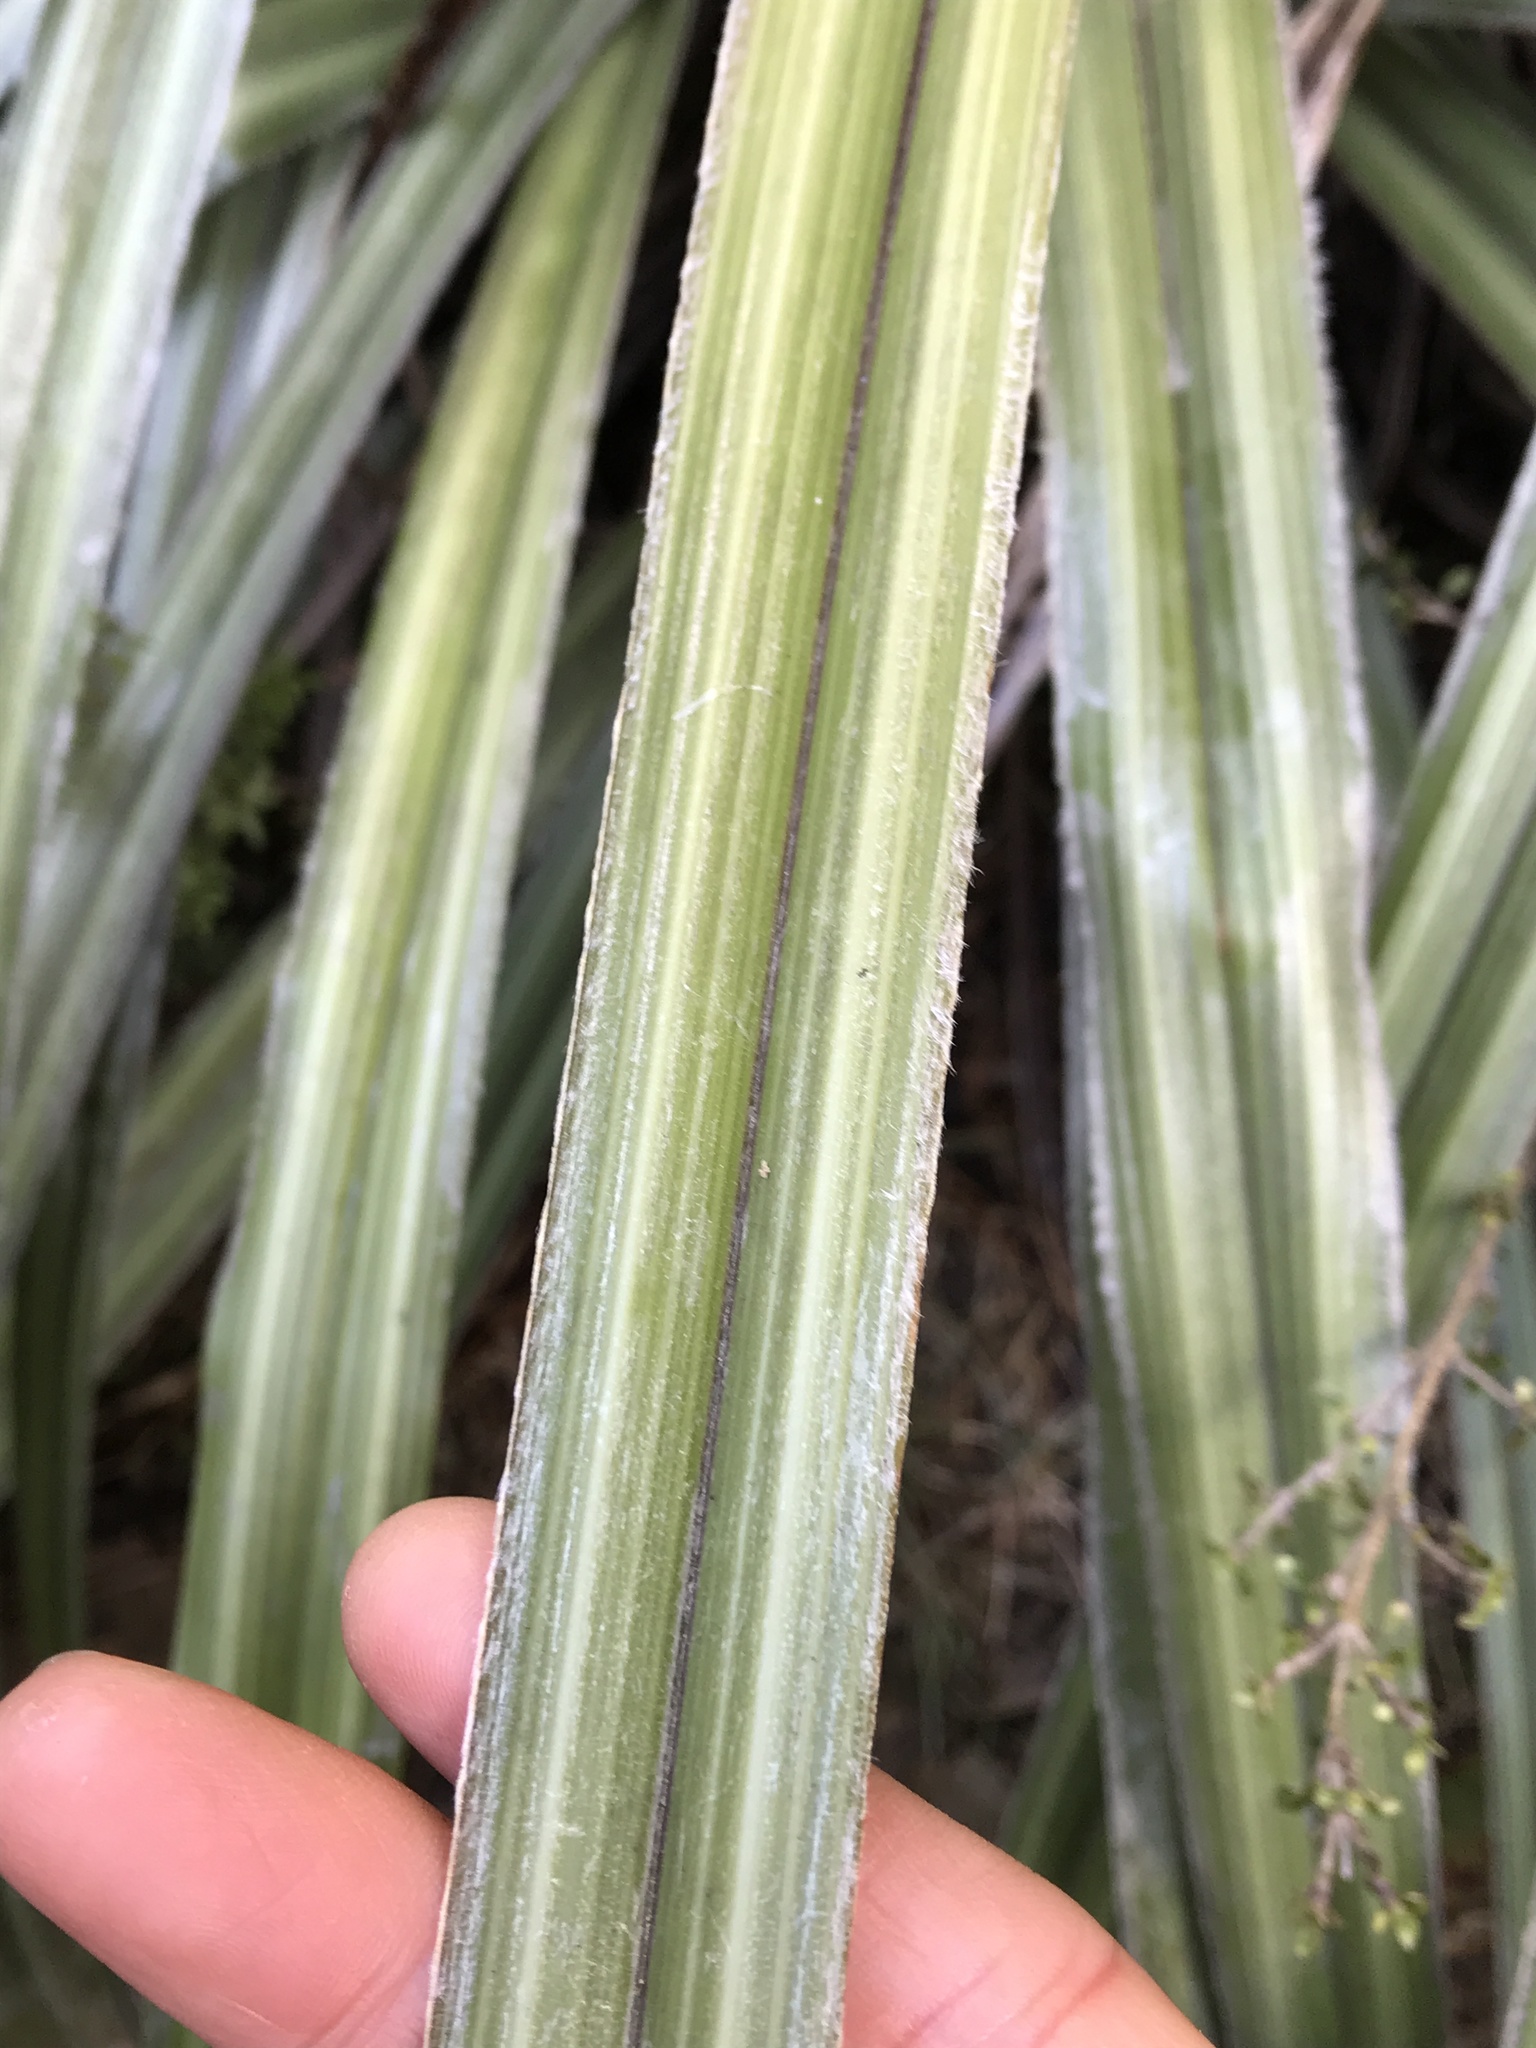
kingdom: Plantae
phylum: Tracheophyta
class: Liliopsida
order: Asparagales
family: Asteliaceae
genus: Astelia
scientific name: Astelia nervosa
